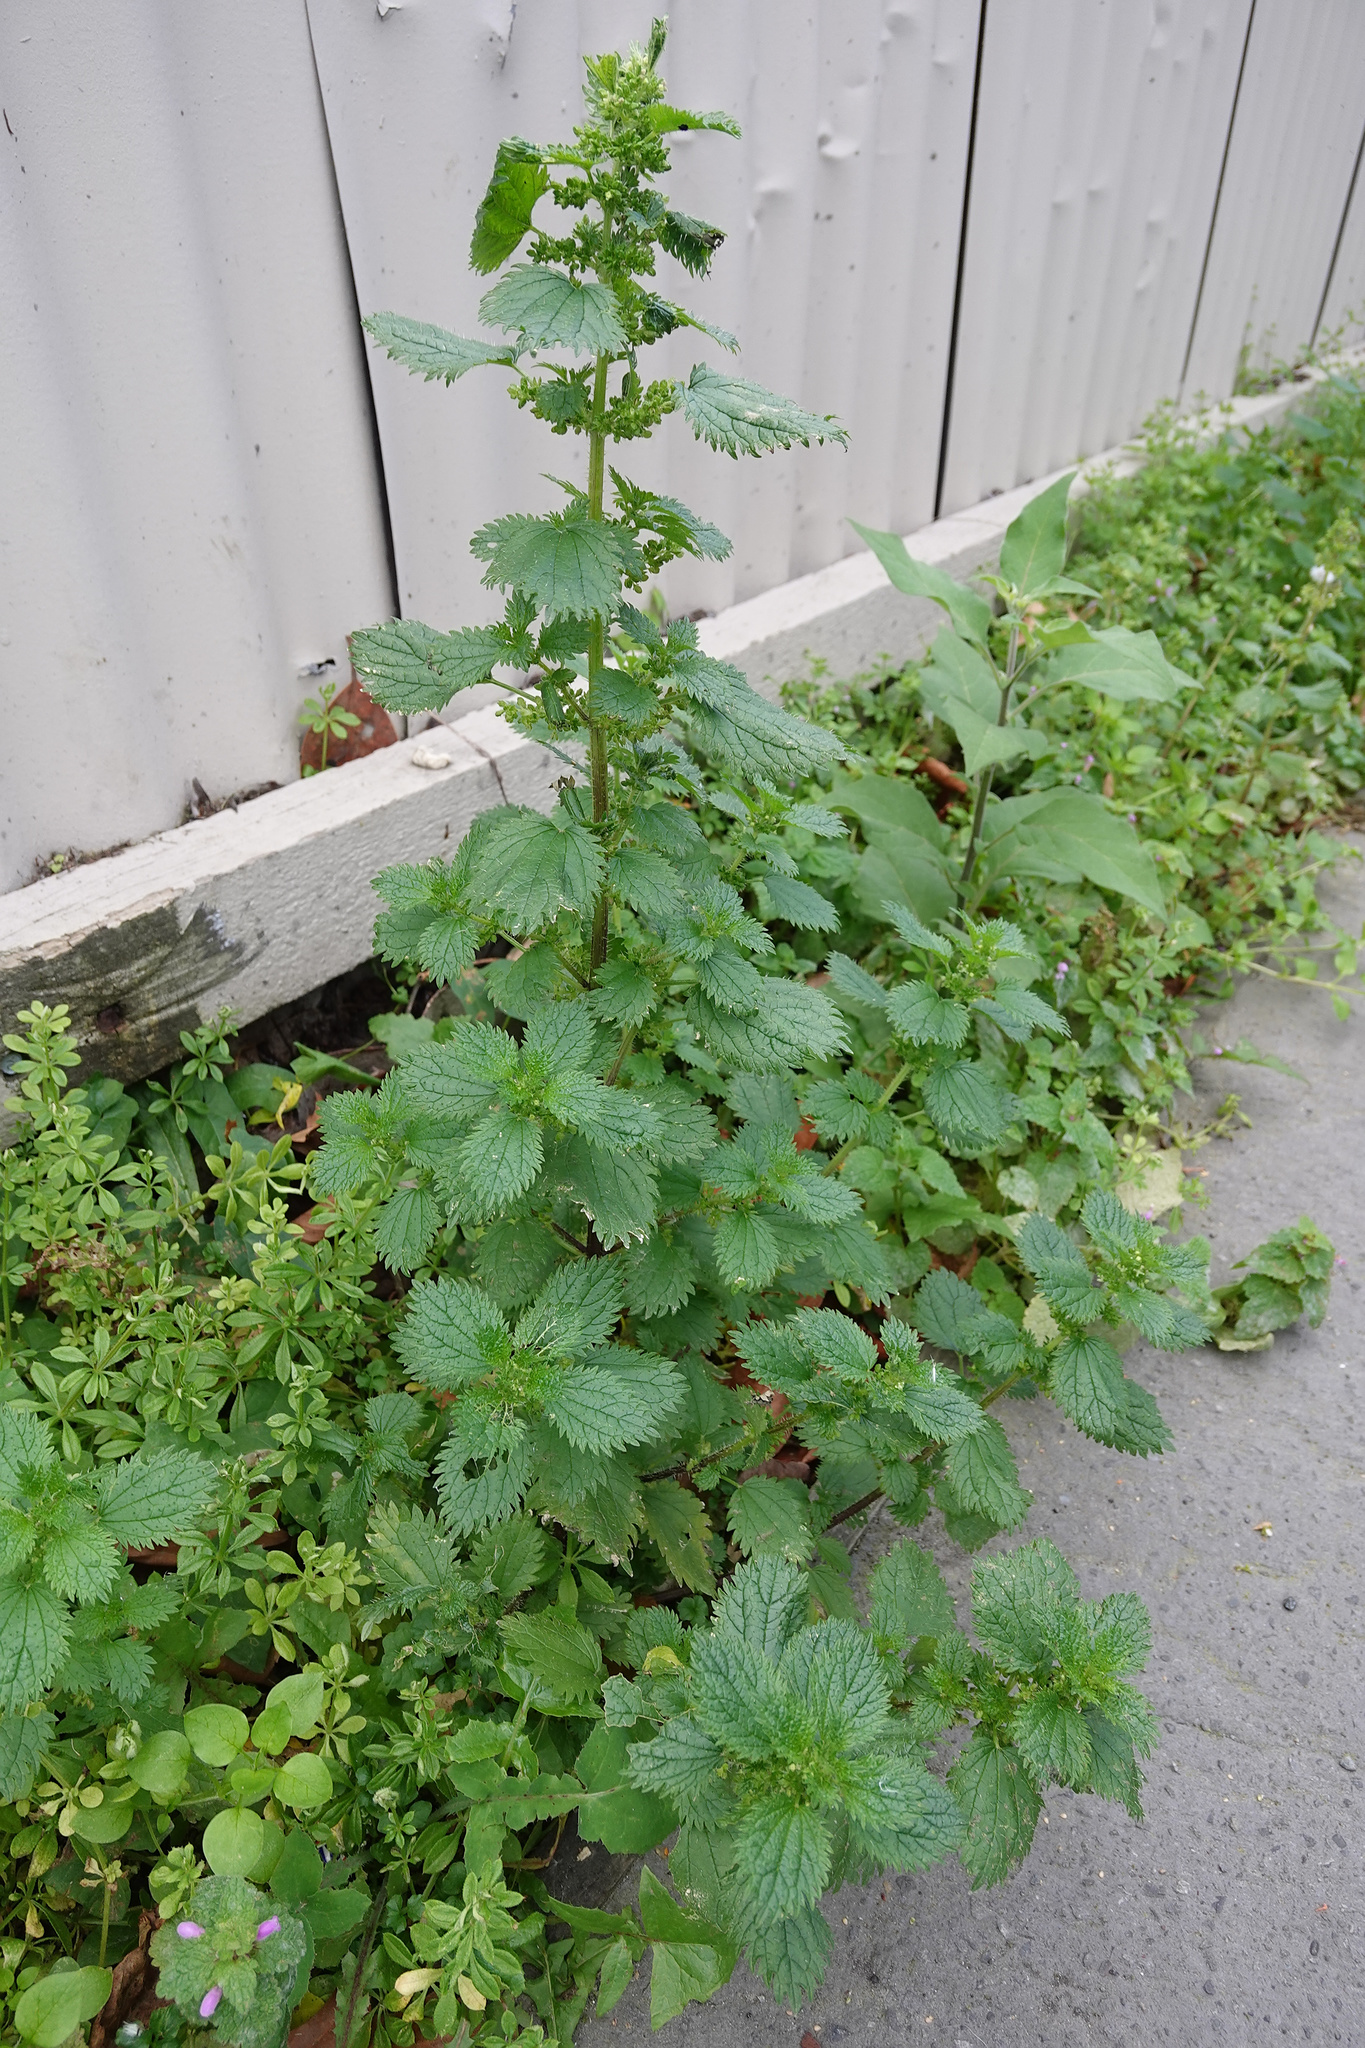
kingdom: Plantae
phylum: Tracheophyta
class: Magnoliopsida
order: Rosales
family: Urticaceae
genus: Urtica
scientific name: Urtica urens
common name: Dwarf nettle
